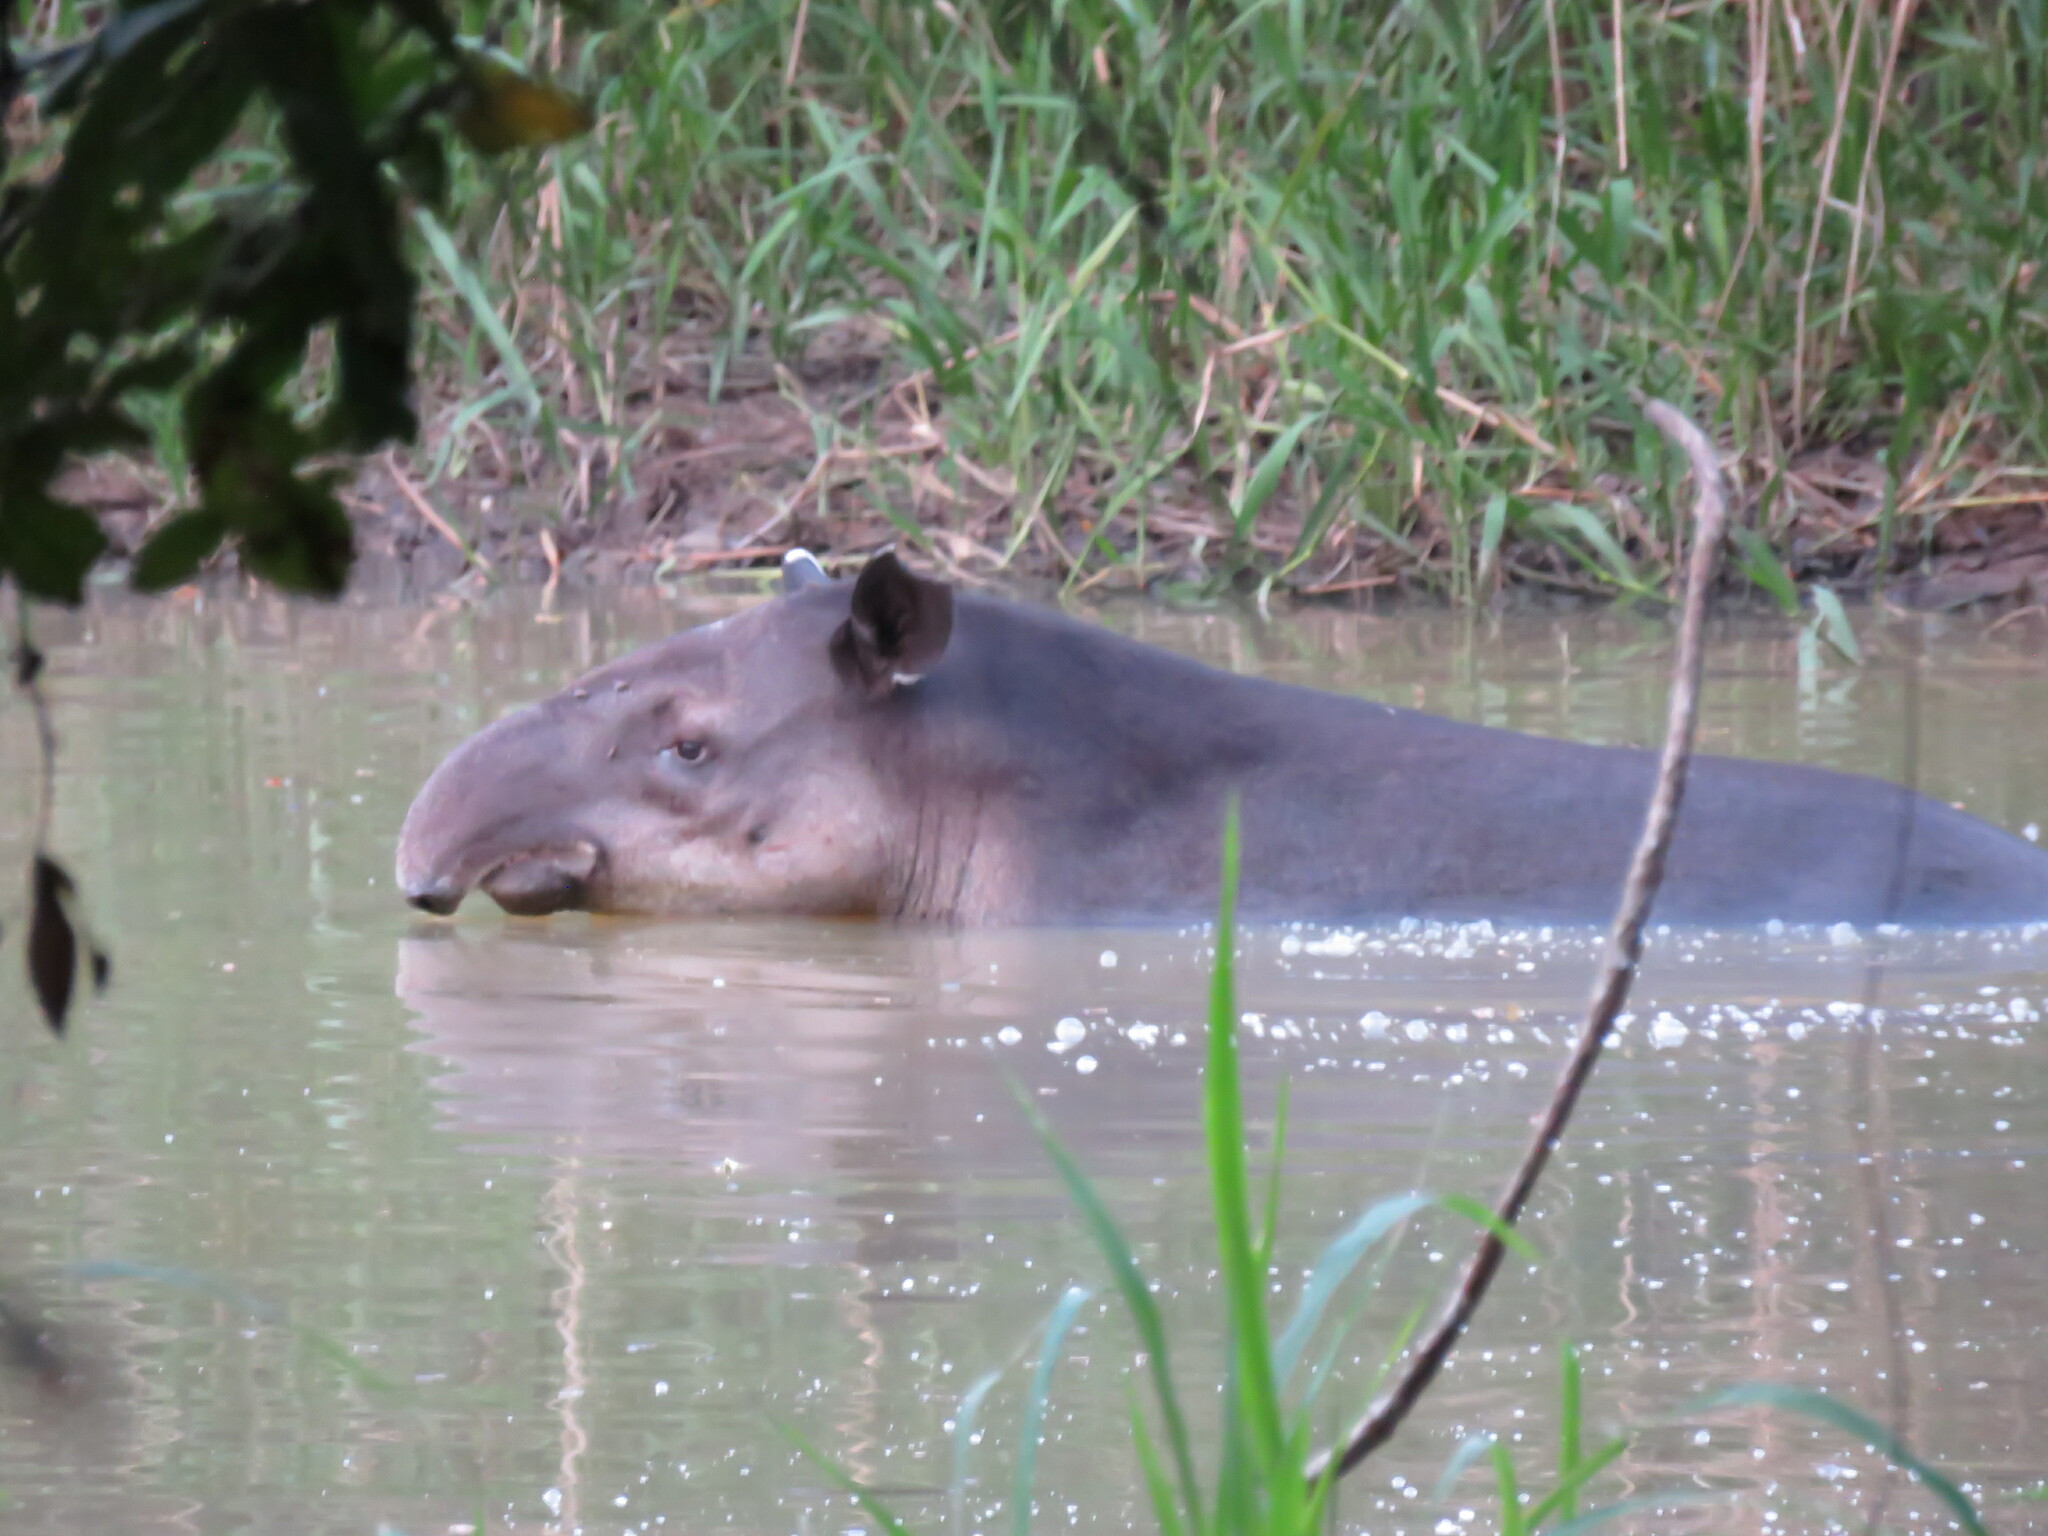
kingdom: Animalia
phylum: Chordata
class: Mammalia
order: Perissodactyla
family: Tapiridae
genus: Tapirella
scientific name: Tapirella bairdii
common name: Baird's tapir
